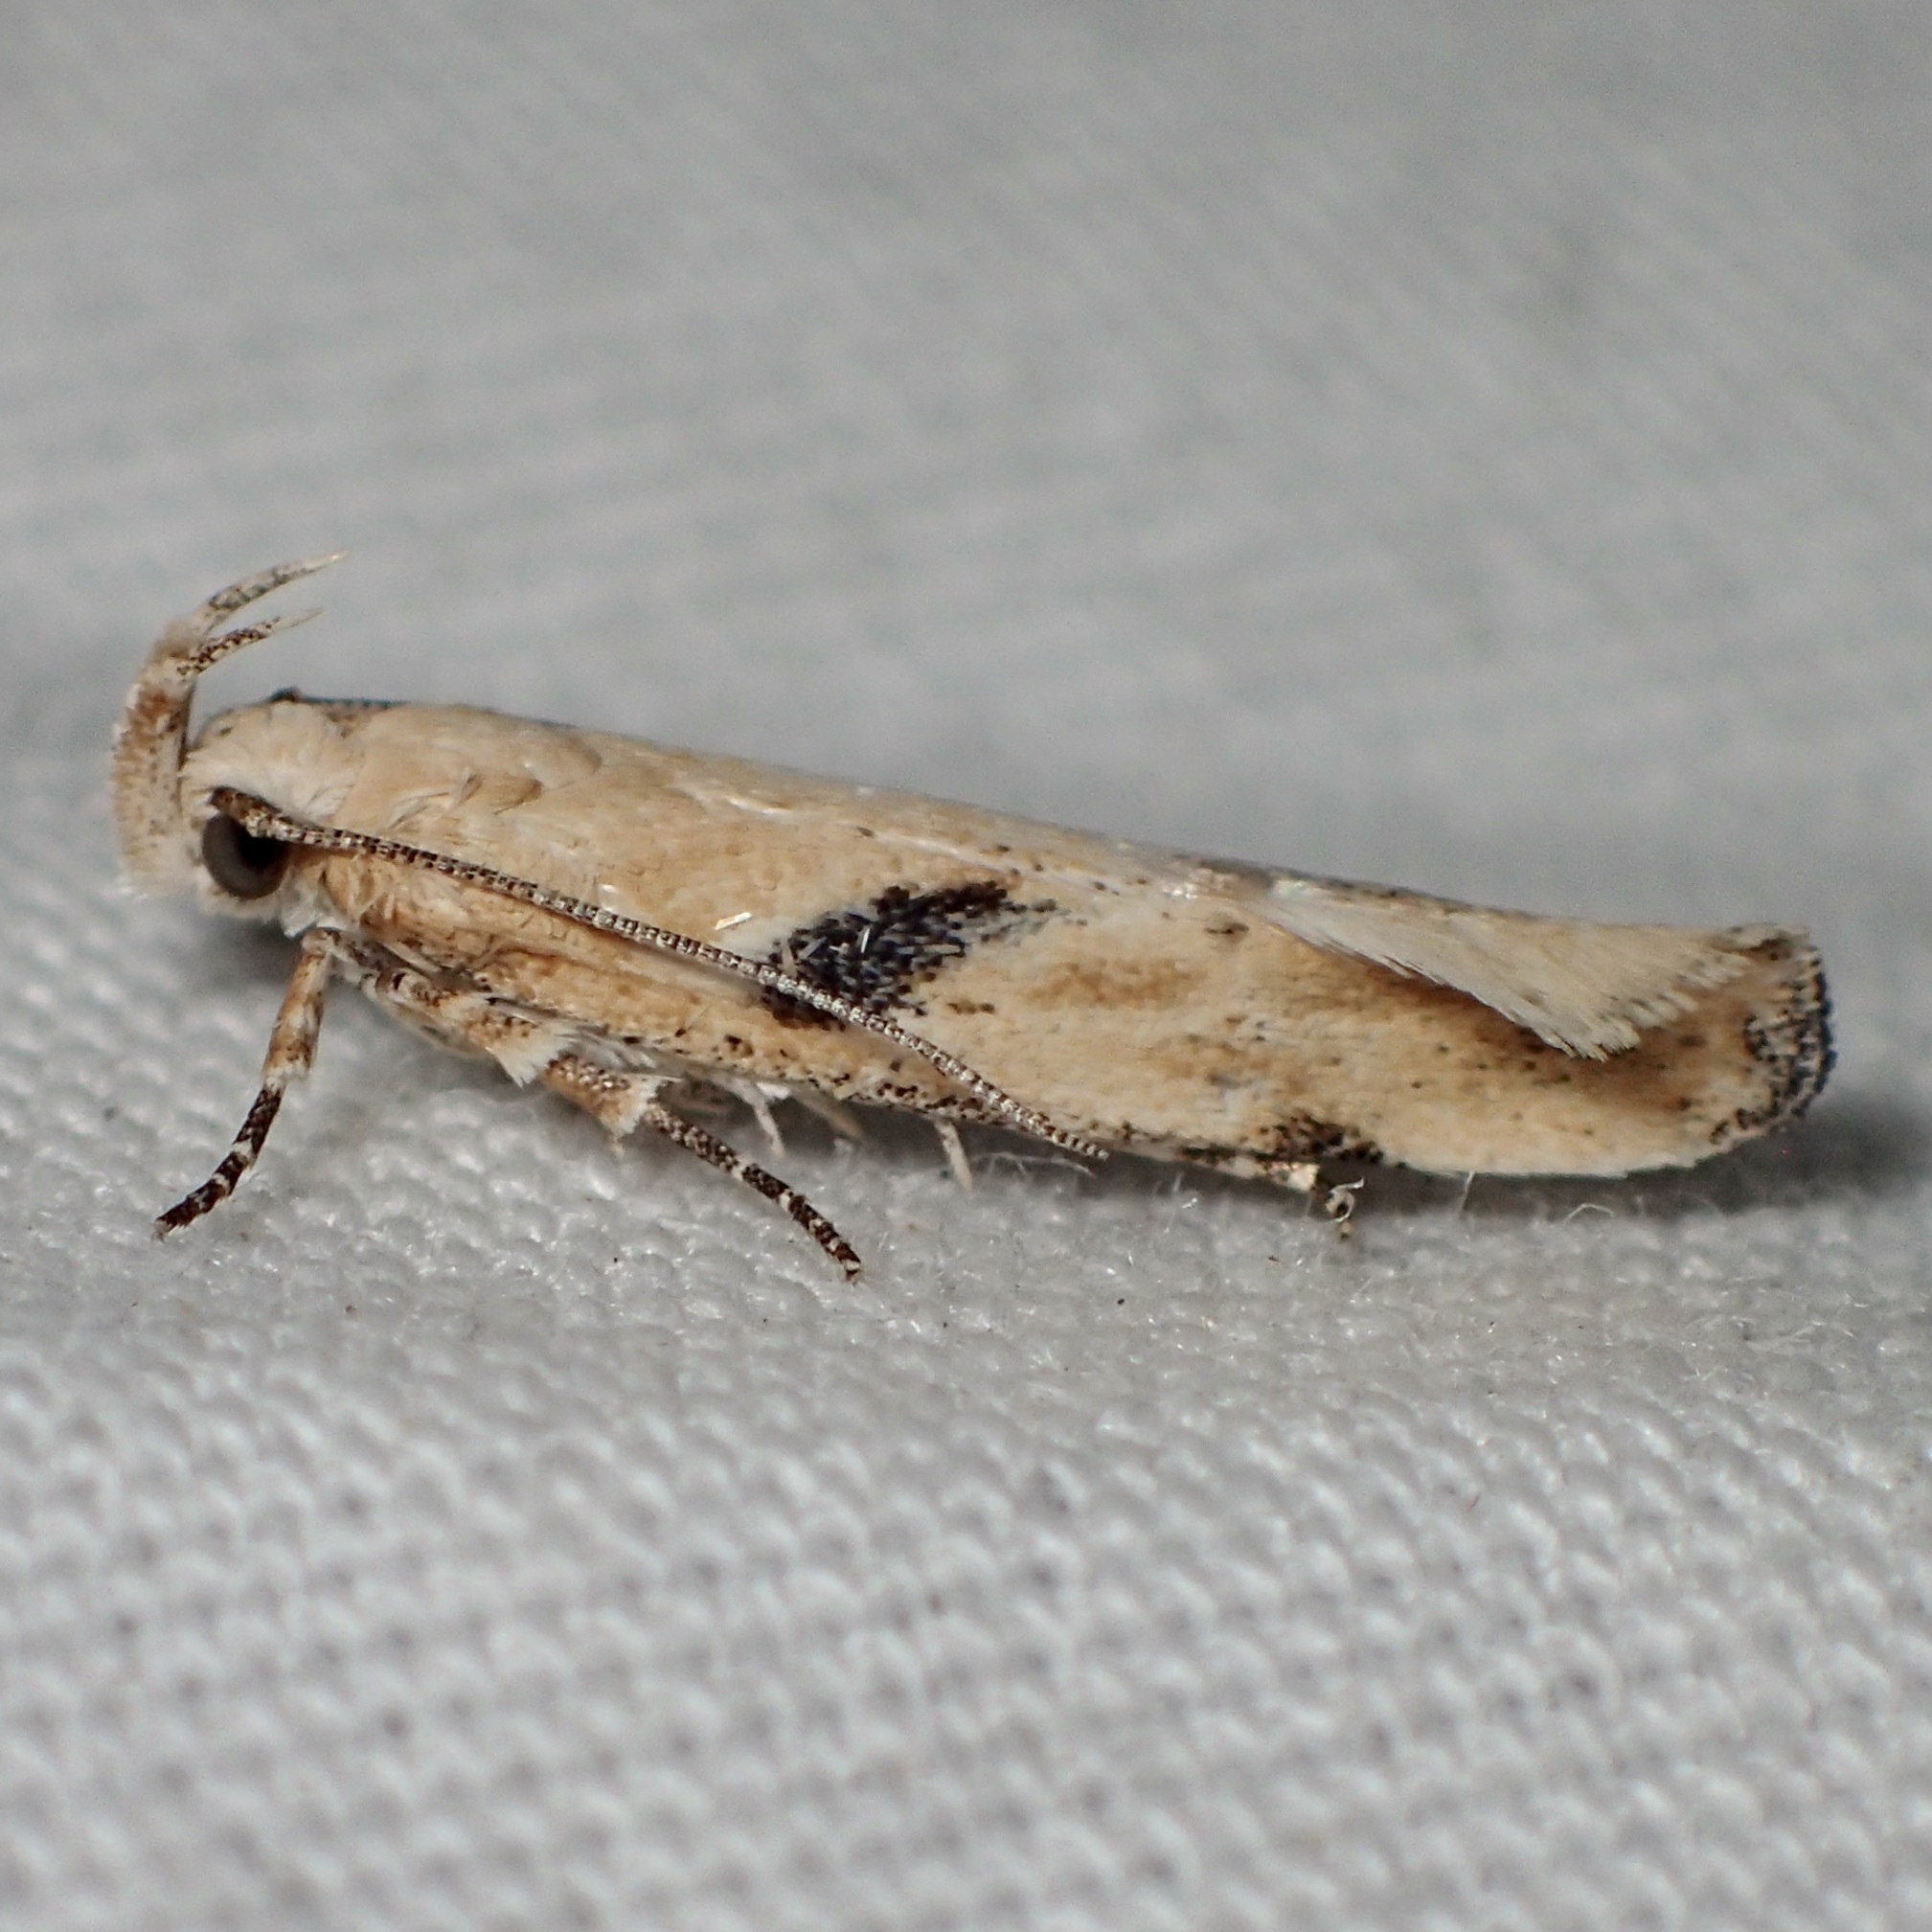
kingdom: Animalia
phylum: Arthropoda
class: Insecta
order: Lepidoptera
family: Gelechiidae
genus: Filatima
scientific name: Filatima depuratella
